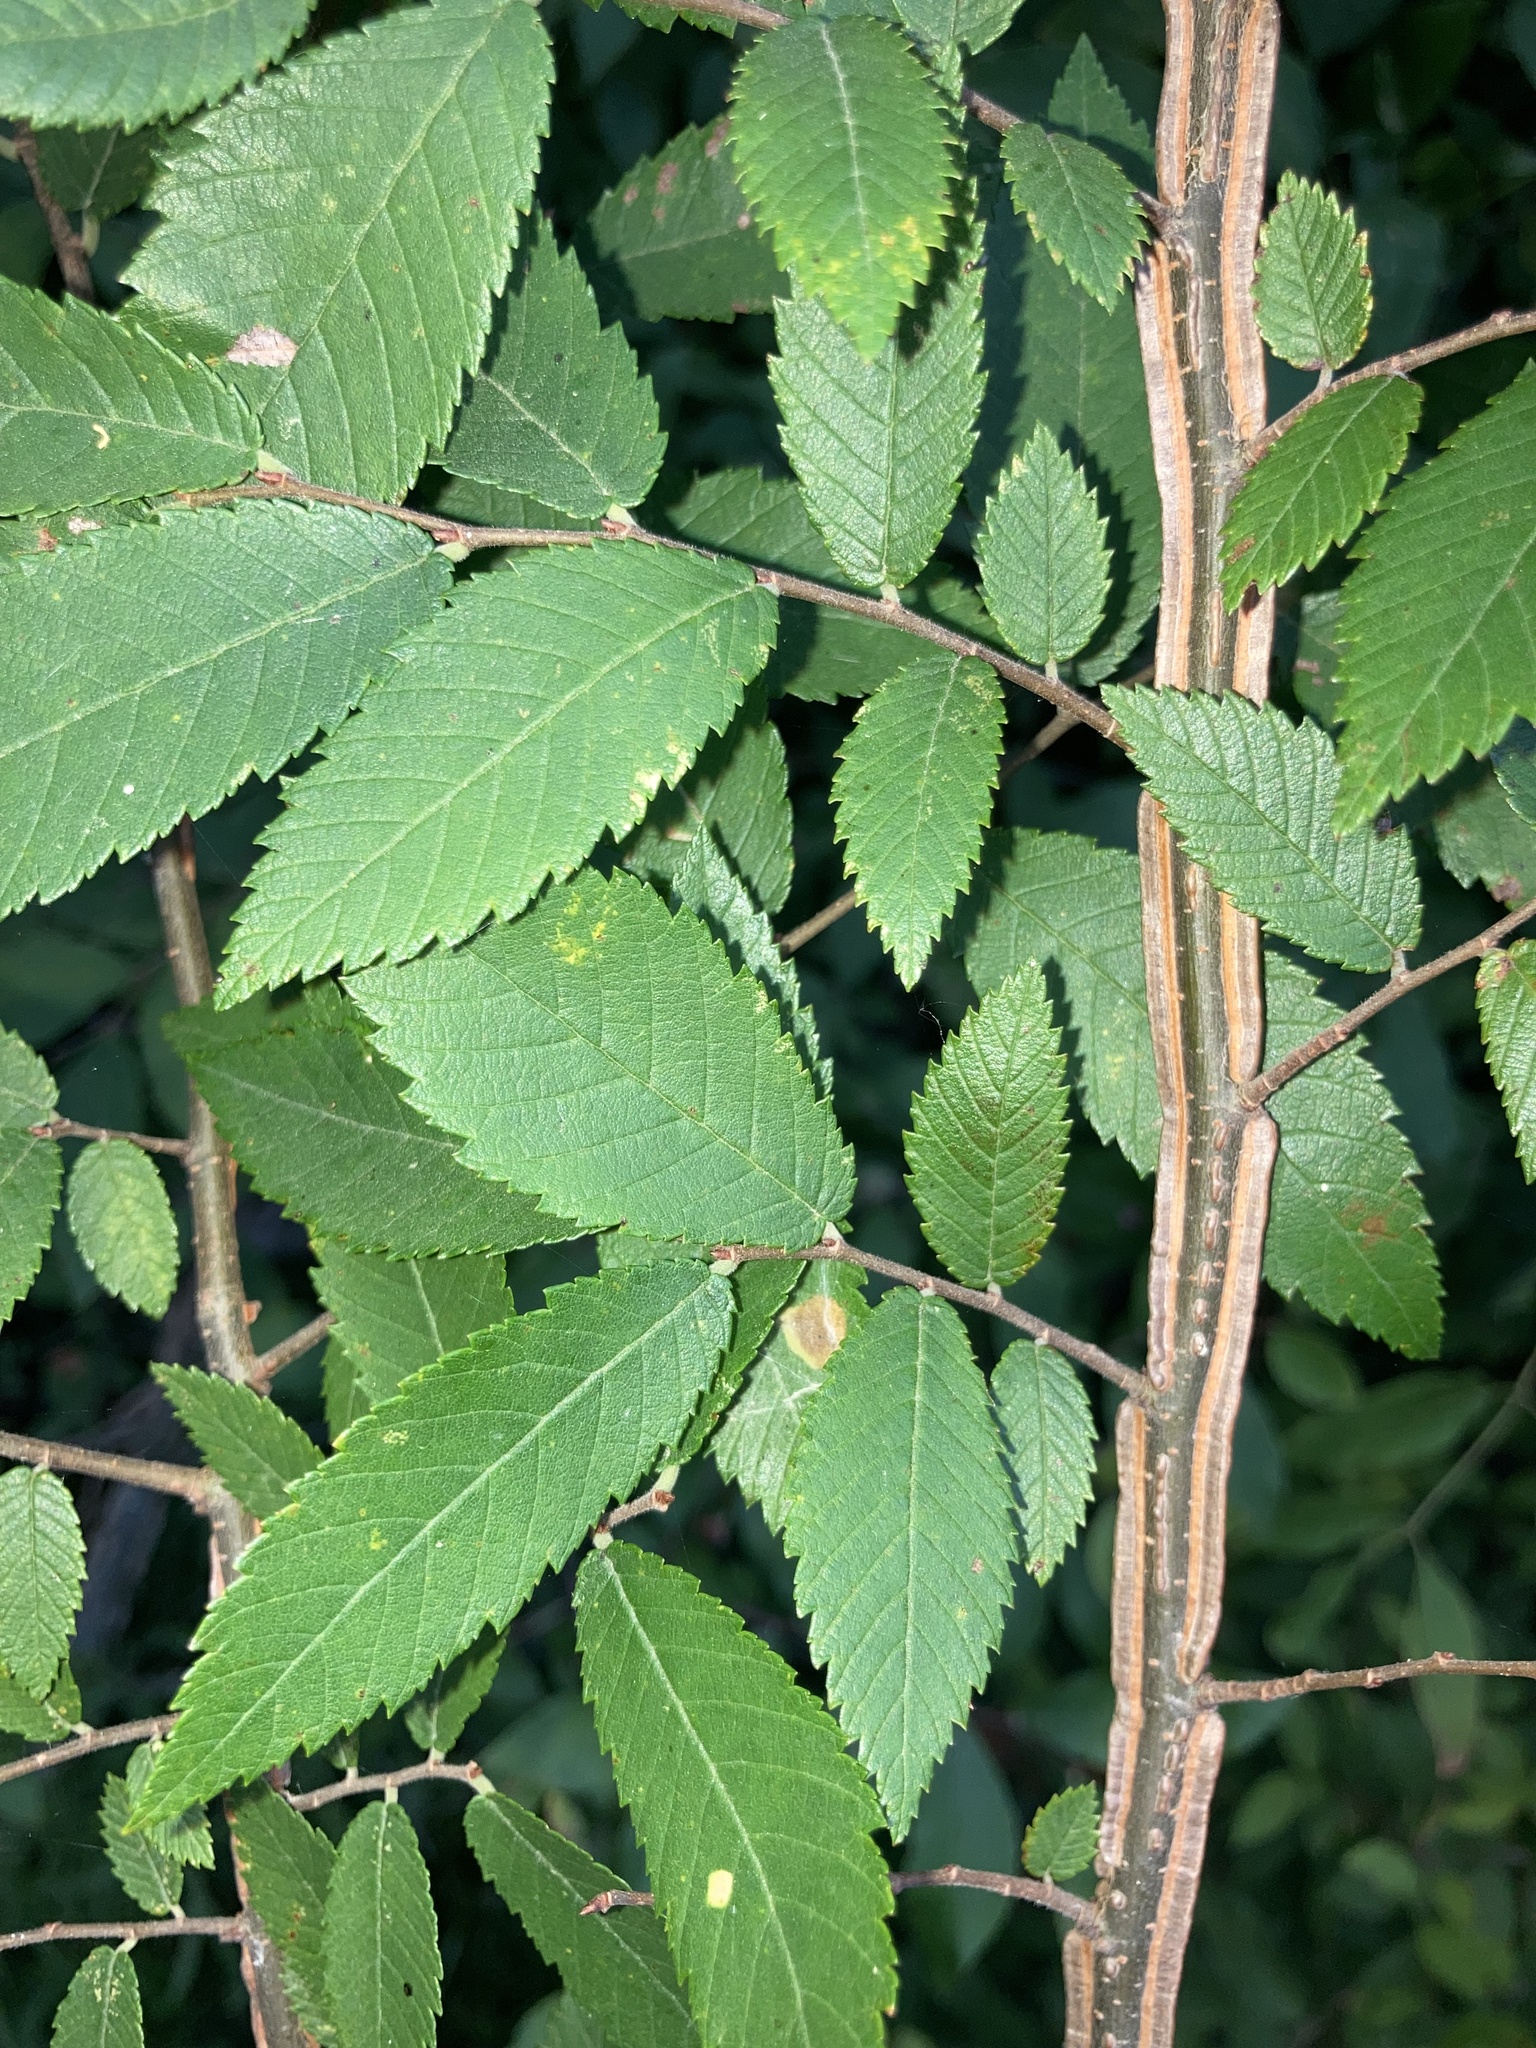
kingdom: Plantae
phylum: Tracheophyta
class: Magnoliopsida
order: Rosales
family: Ulmaceae
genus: Ulmus
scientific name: Ulmus alata
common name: Winged elm
